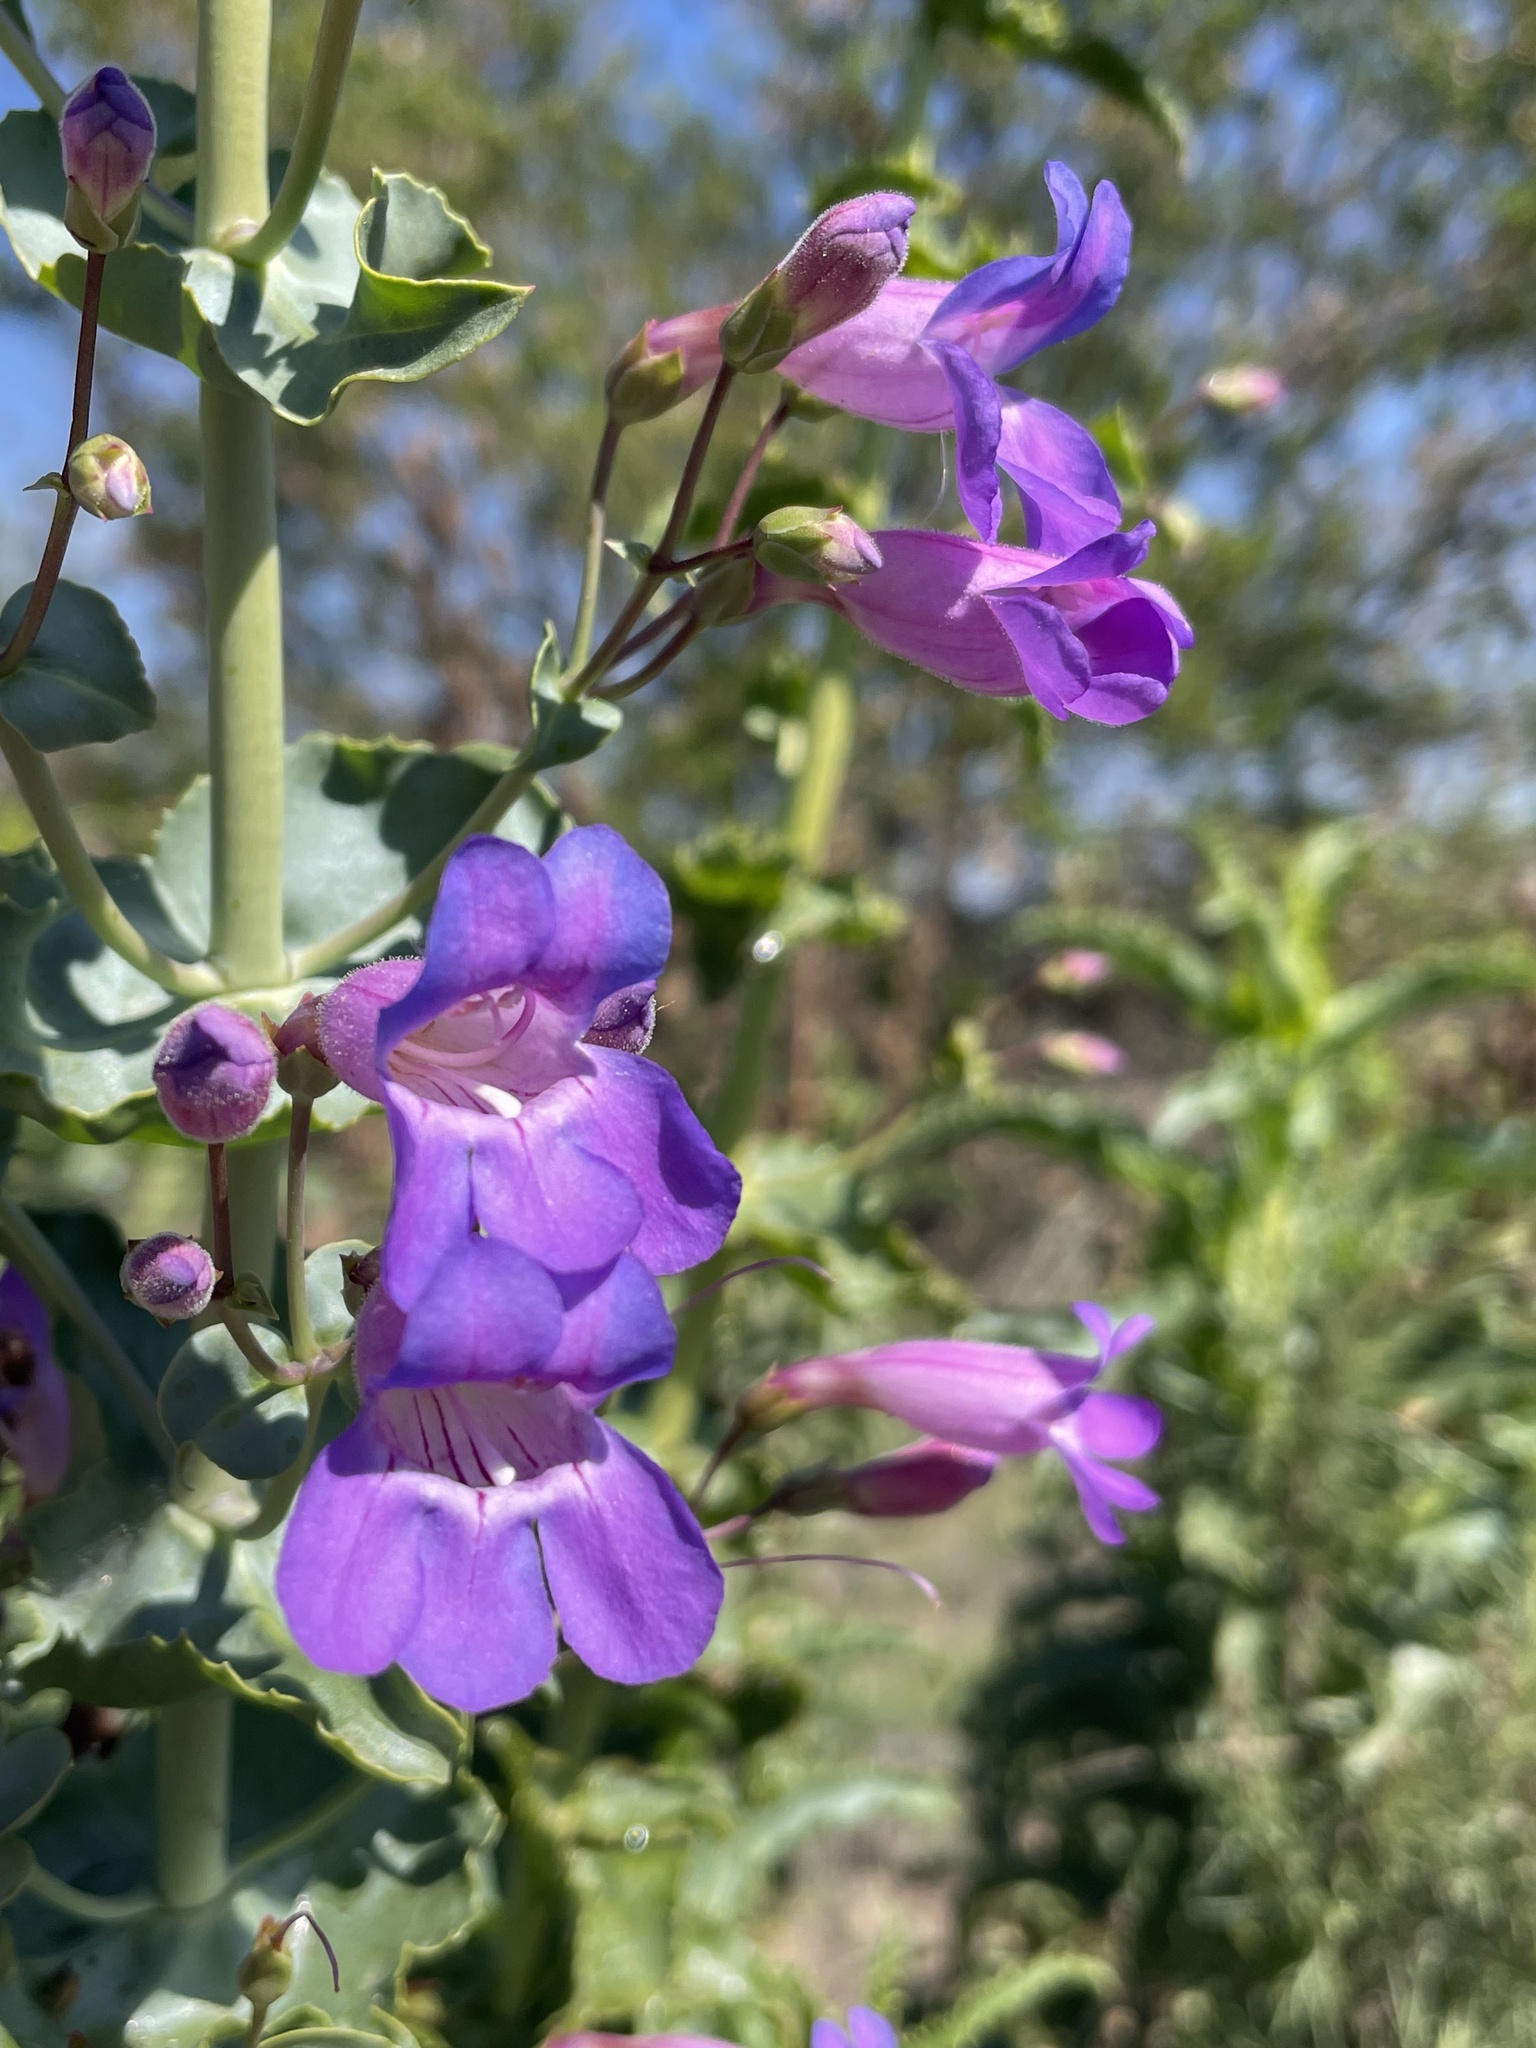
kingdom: Plantae
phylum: Tracheophyta
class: Magnoliopsida
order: Lamiales
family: Plantaginaceae
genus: Penstemon
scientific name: Penstemon spectabilis
